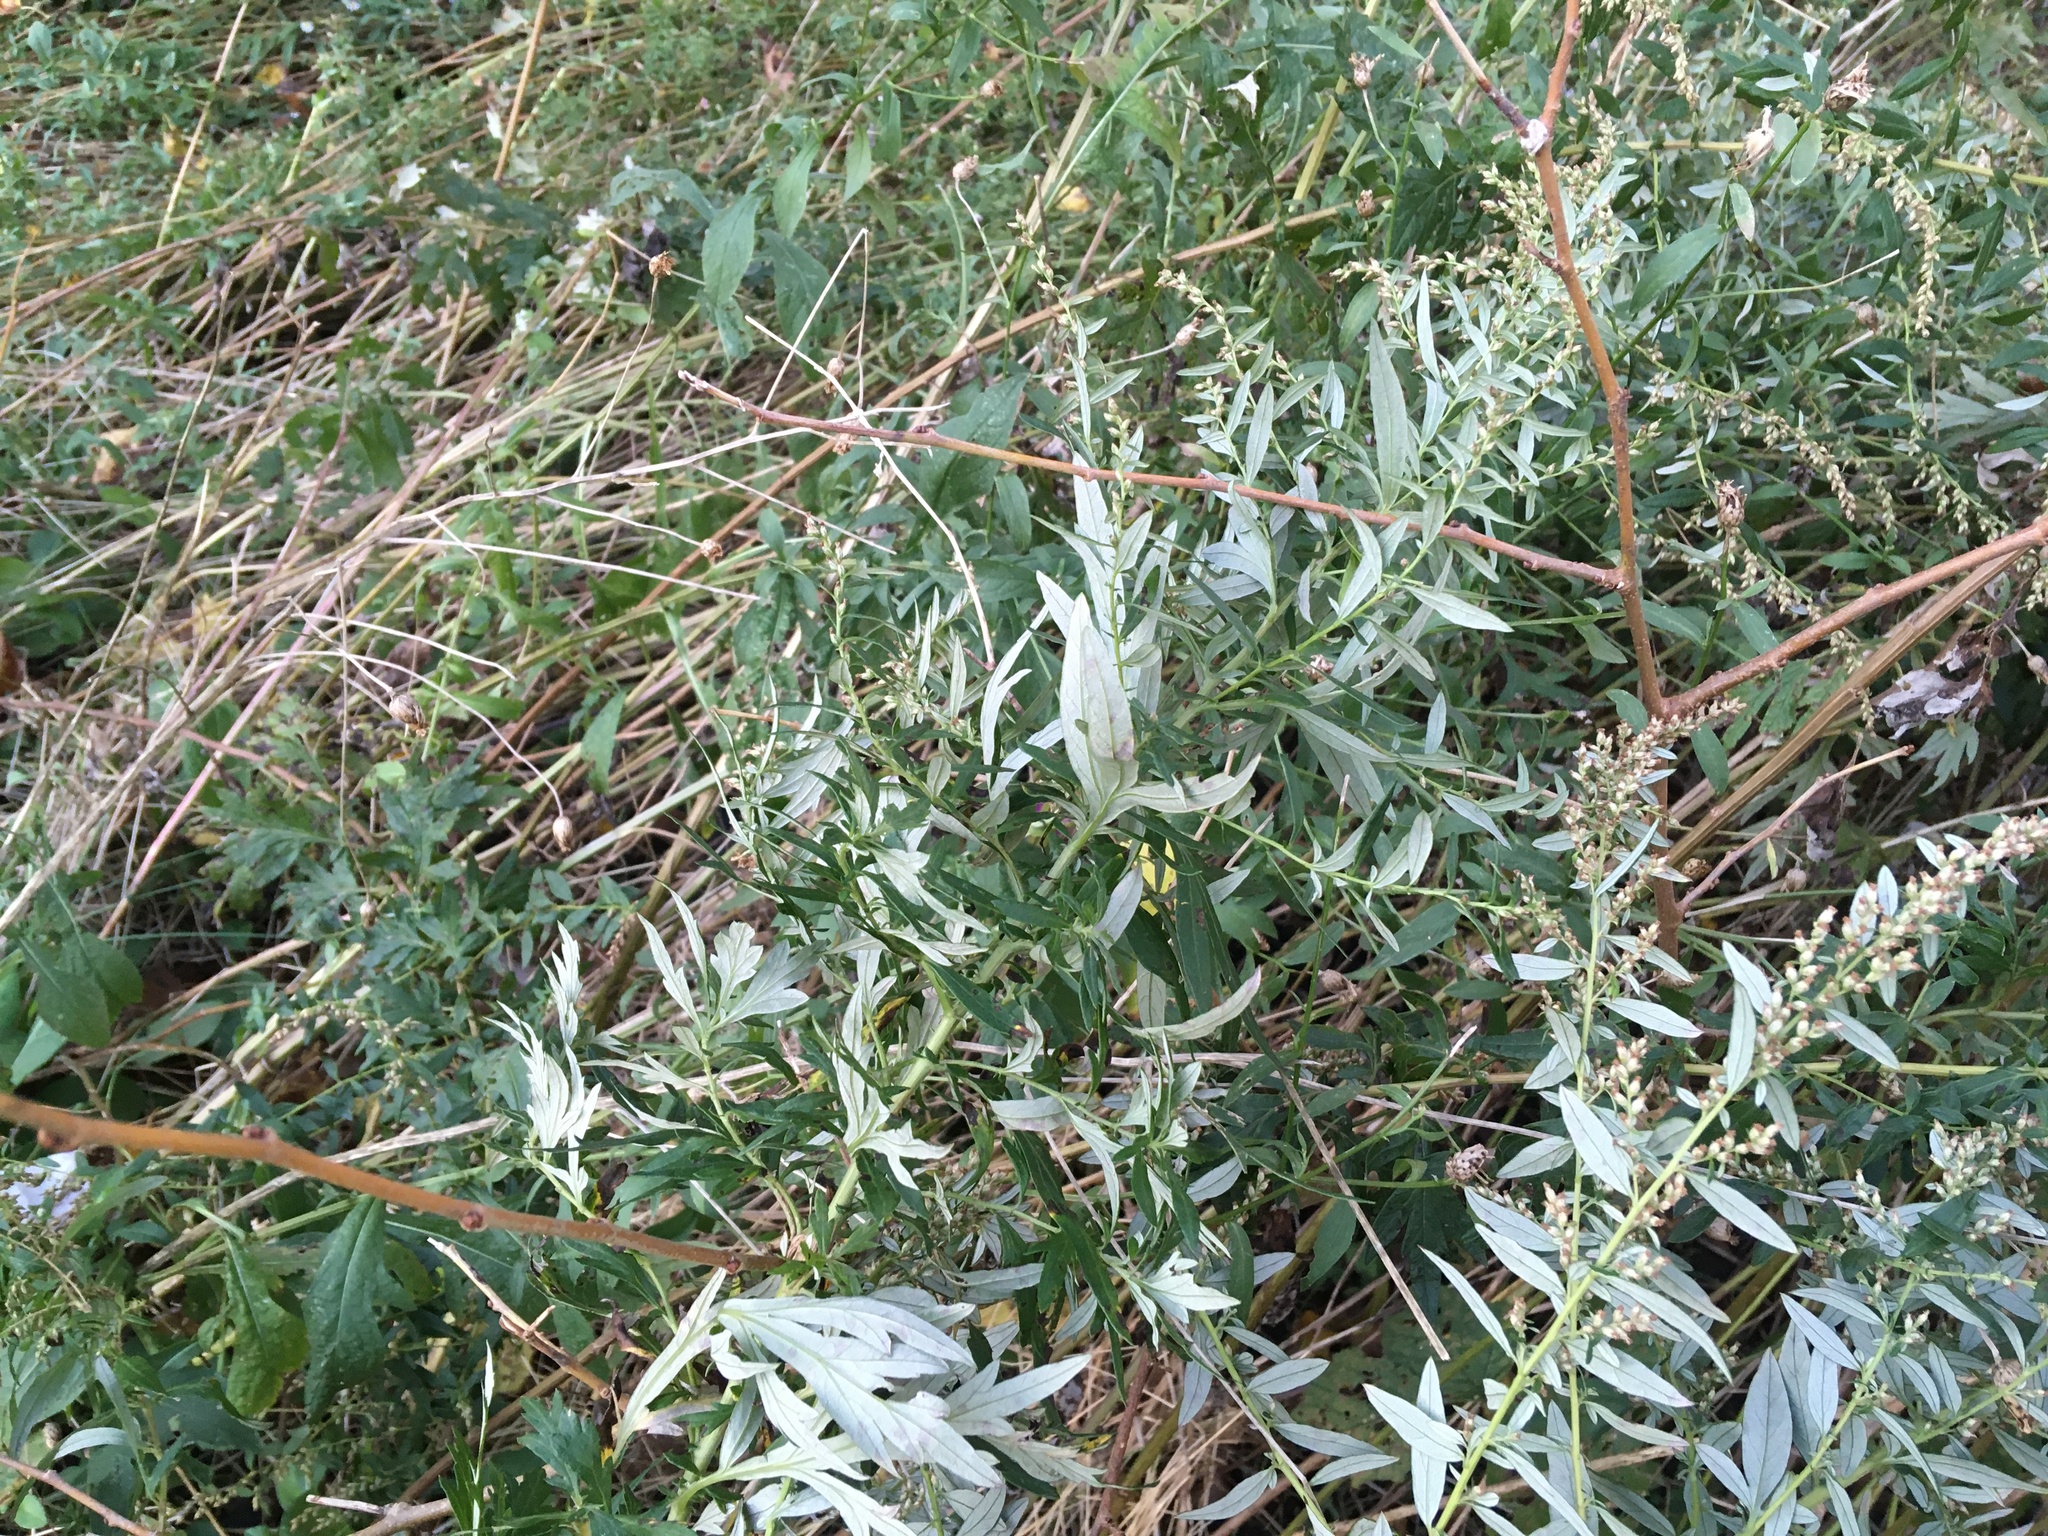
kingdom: Plantae
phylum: Tracheophyta
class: Magnoliopsida
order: Asterales
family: Asteraceae
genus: Artemisia
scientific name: Artemisia vulgaris
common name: Mugwort
